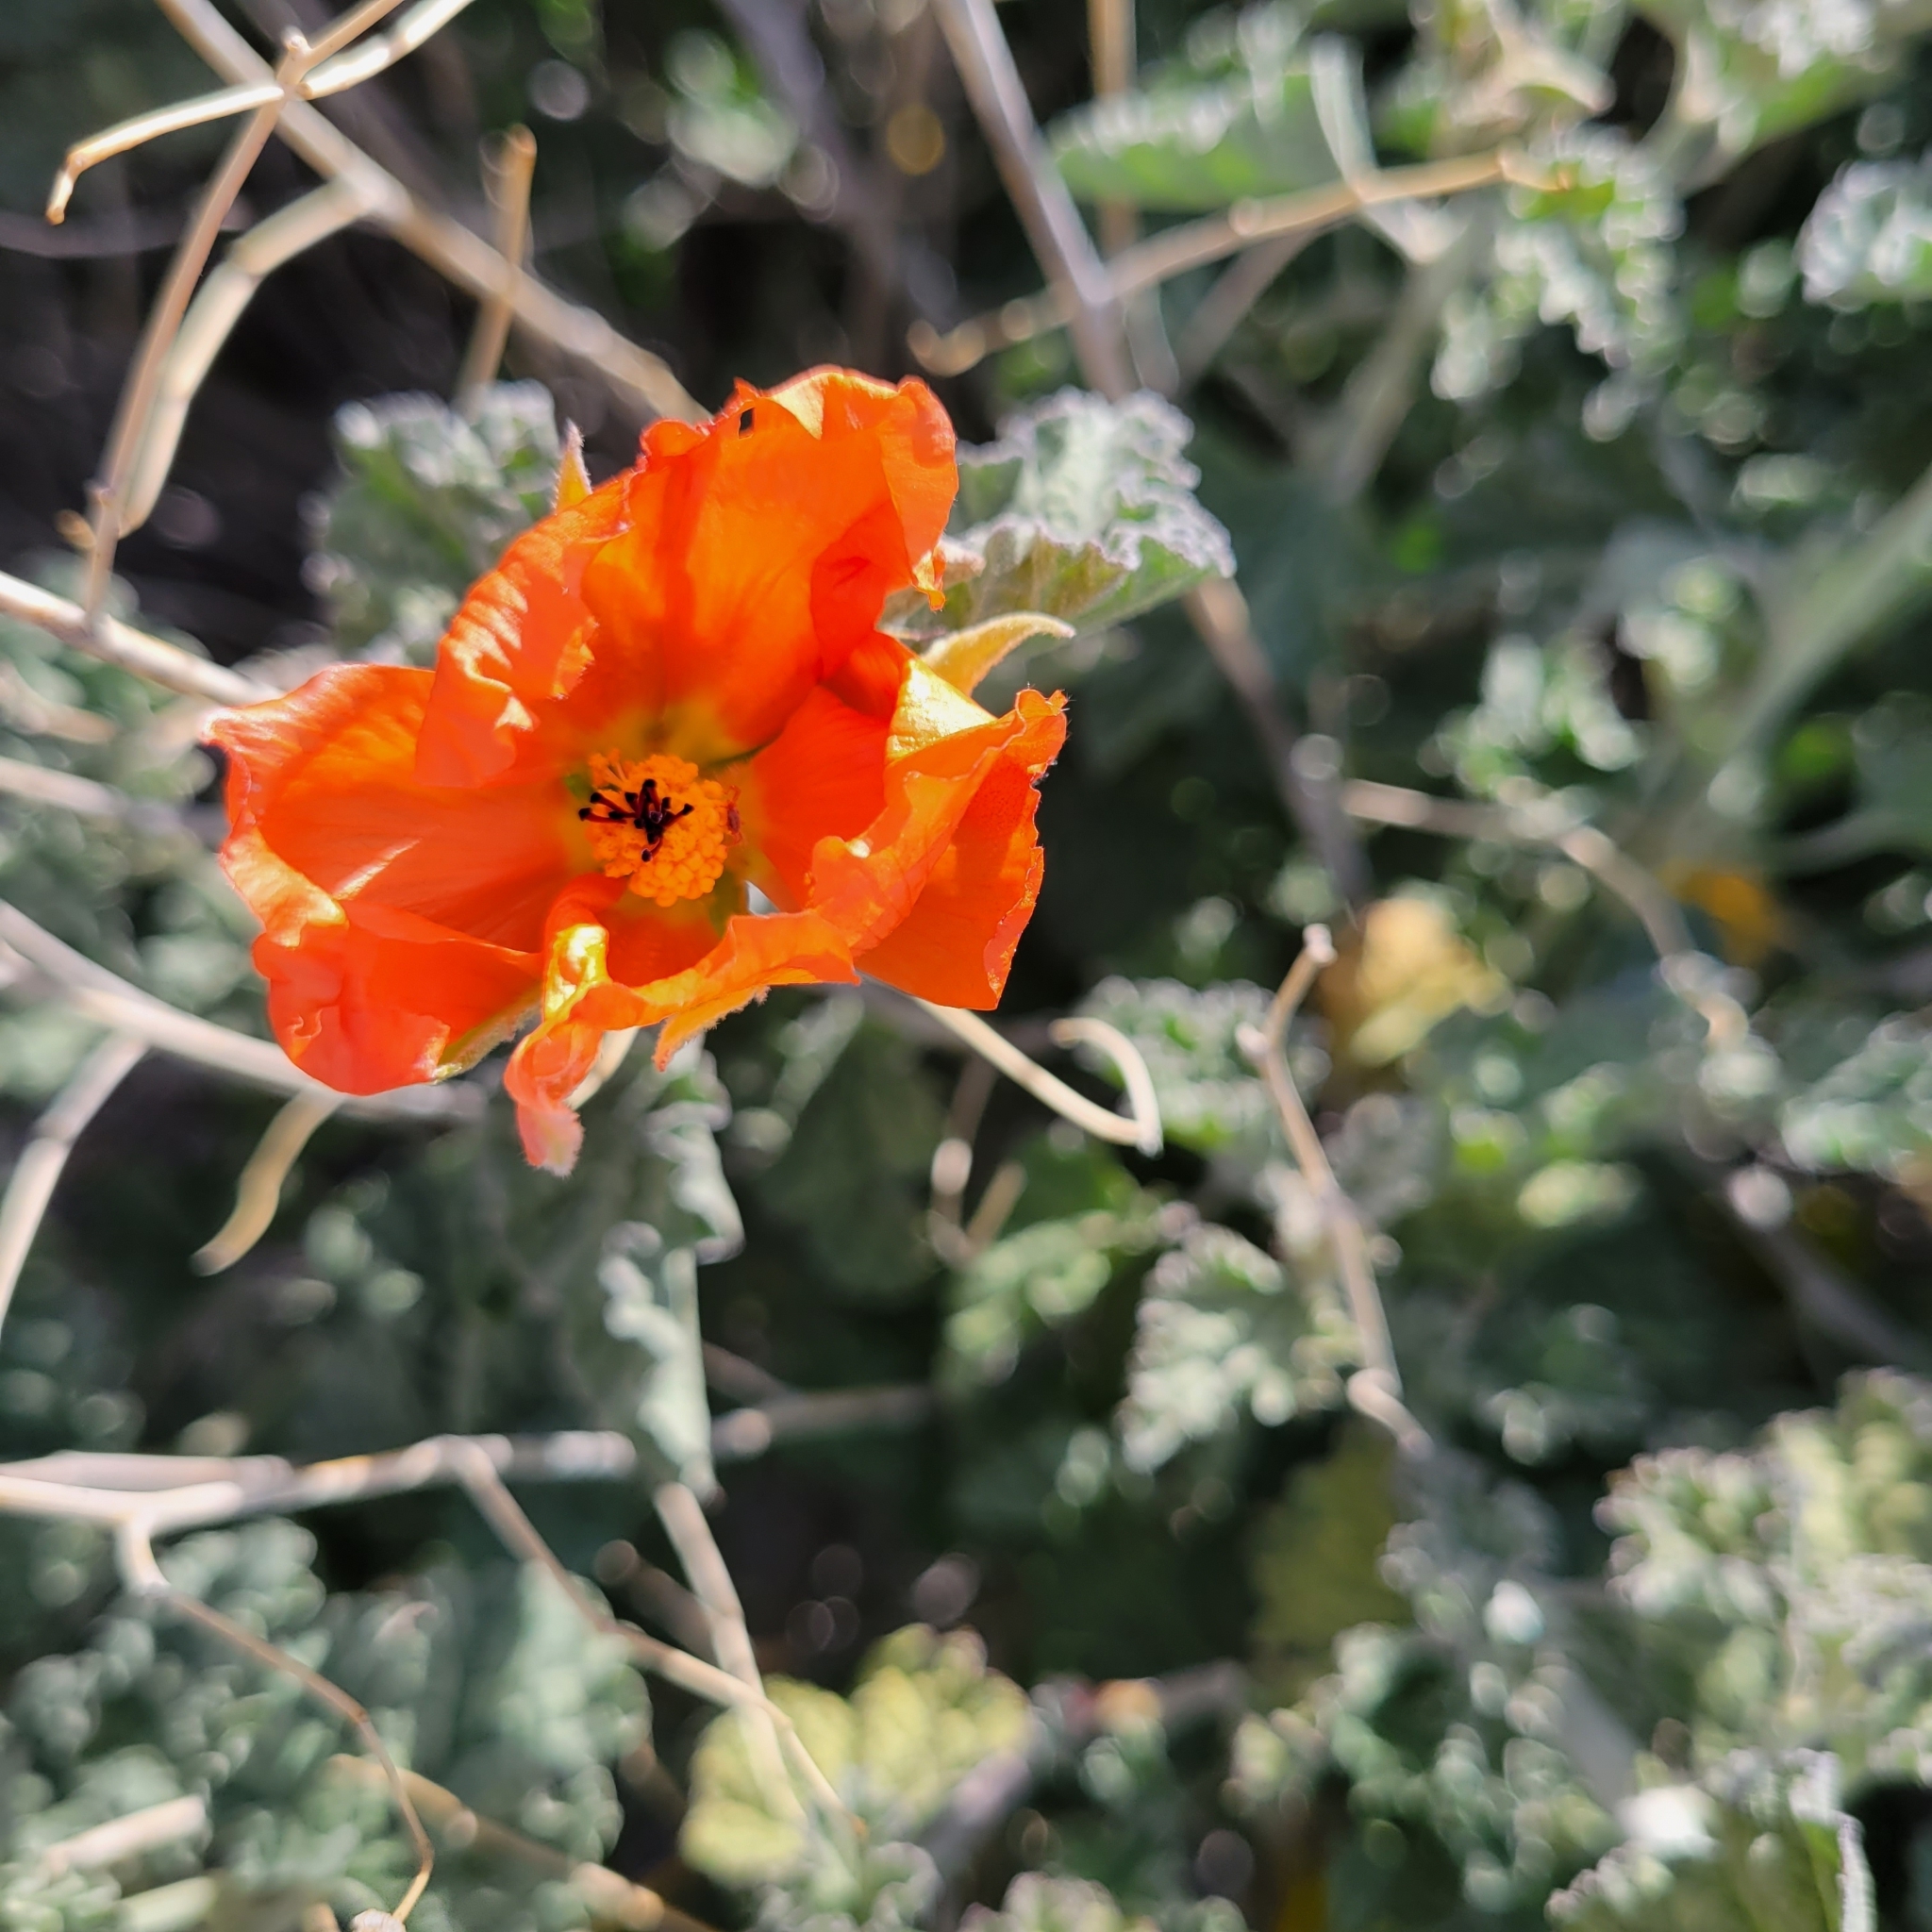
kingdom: Plantae
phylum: Tracheophyta
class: Magnoliopsida
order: Malvales
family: Malvaceae
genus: Sphaeralcea
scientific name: Sphaeralcea ambigua
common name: Apricot globe-mallow
